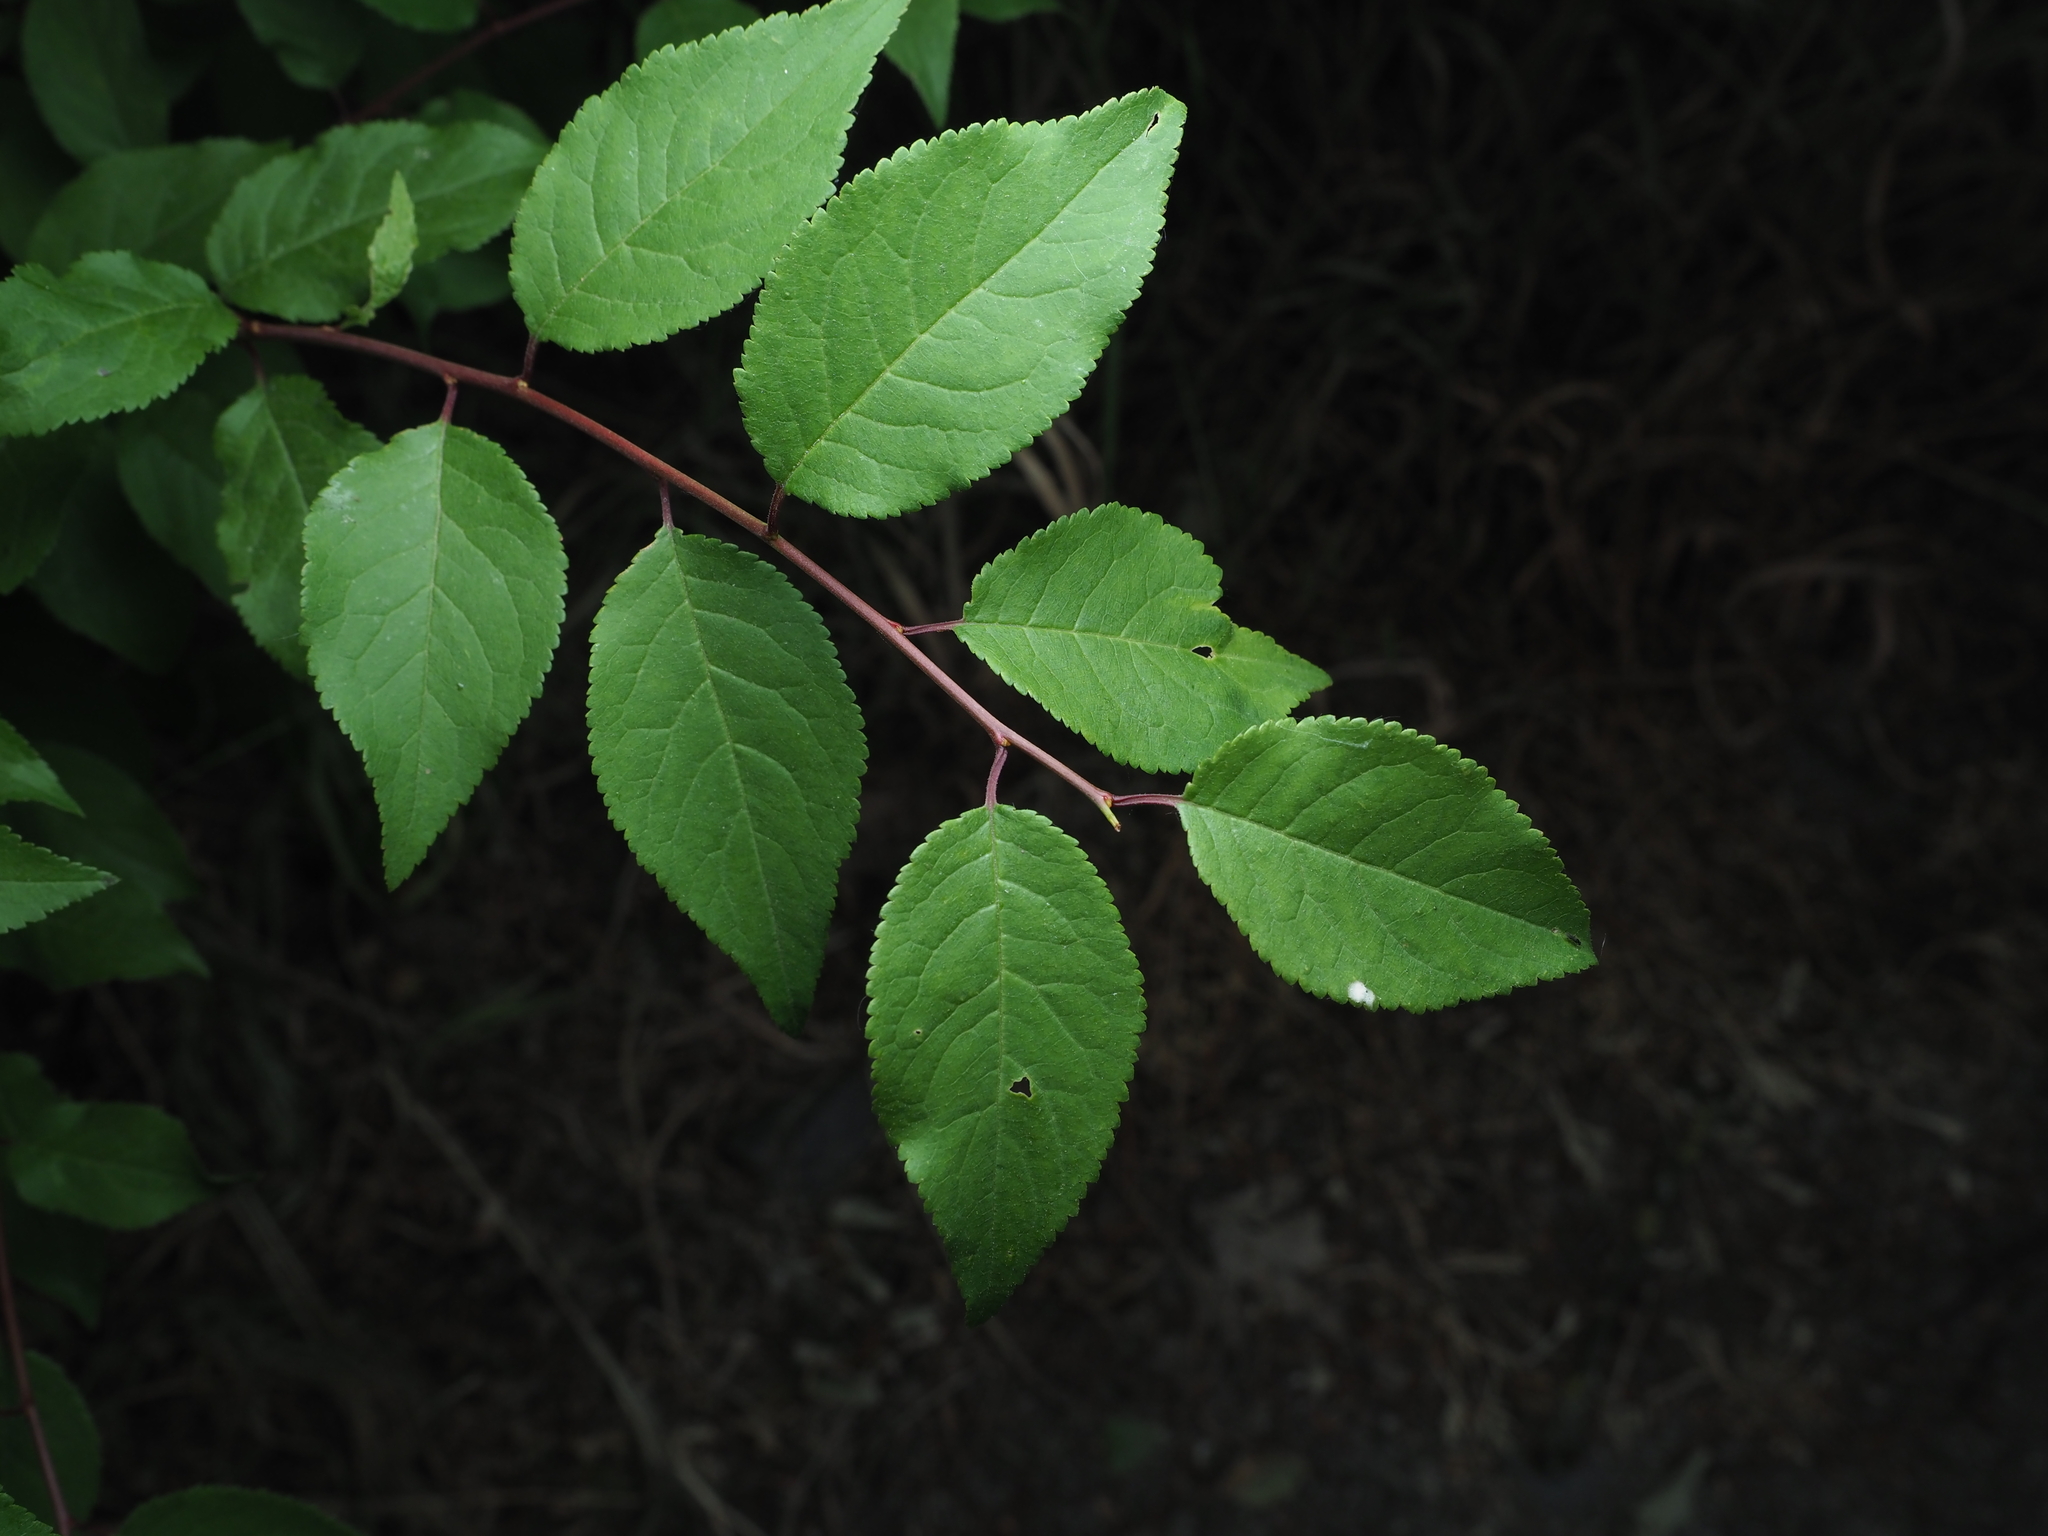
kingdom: Plantae
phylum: Tracheophyta
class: Magnoliopsida
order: Rosales
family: Rosaceae
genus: Prunus
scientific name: Prunus cerasifera
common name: Cherry plum
